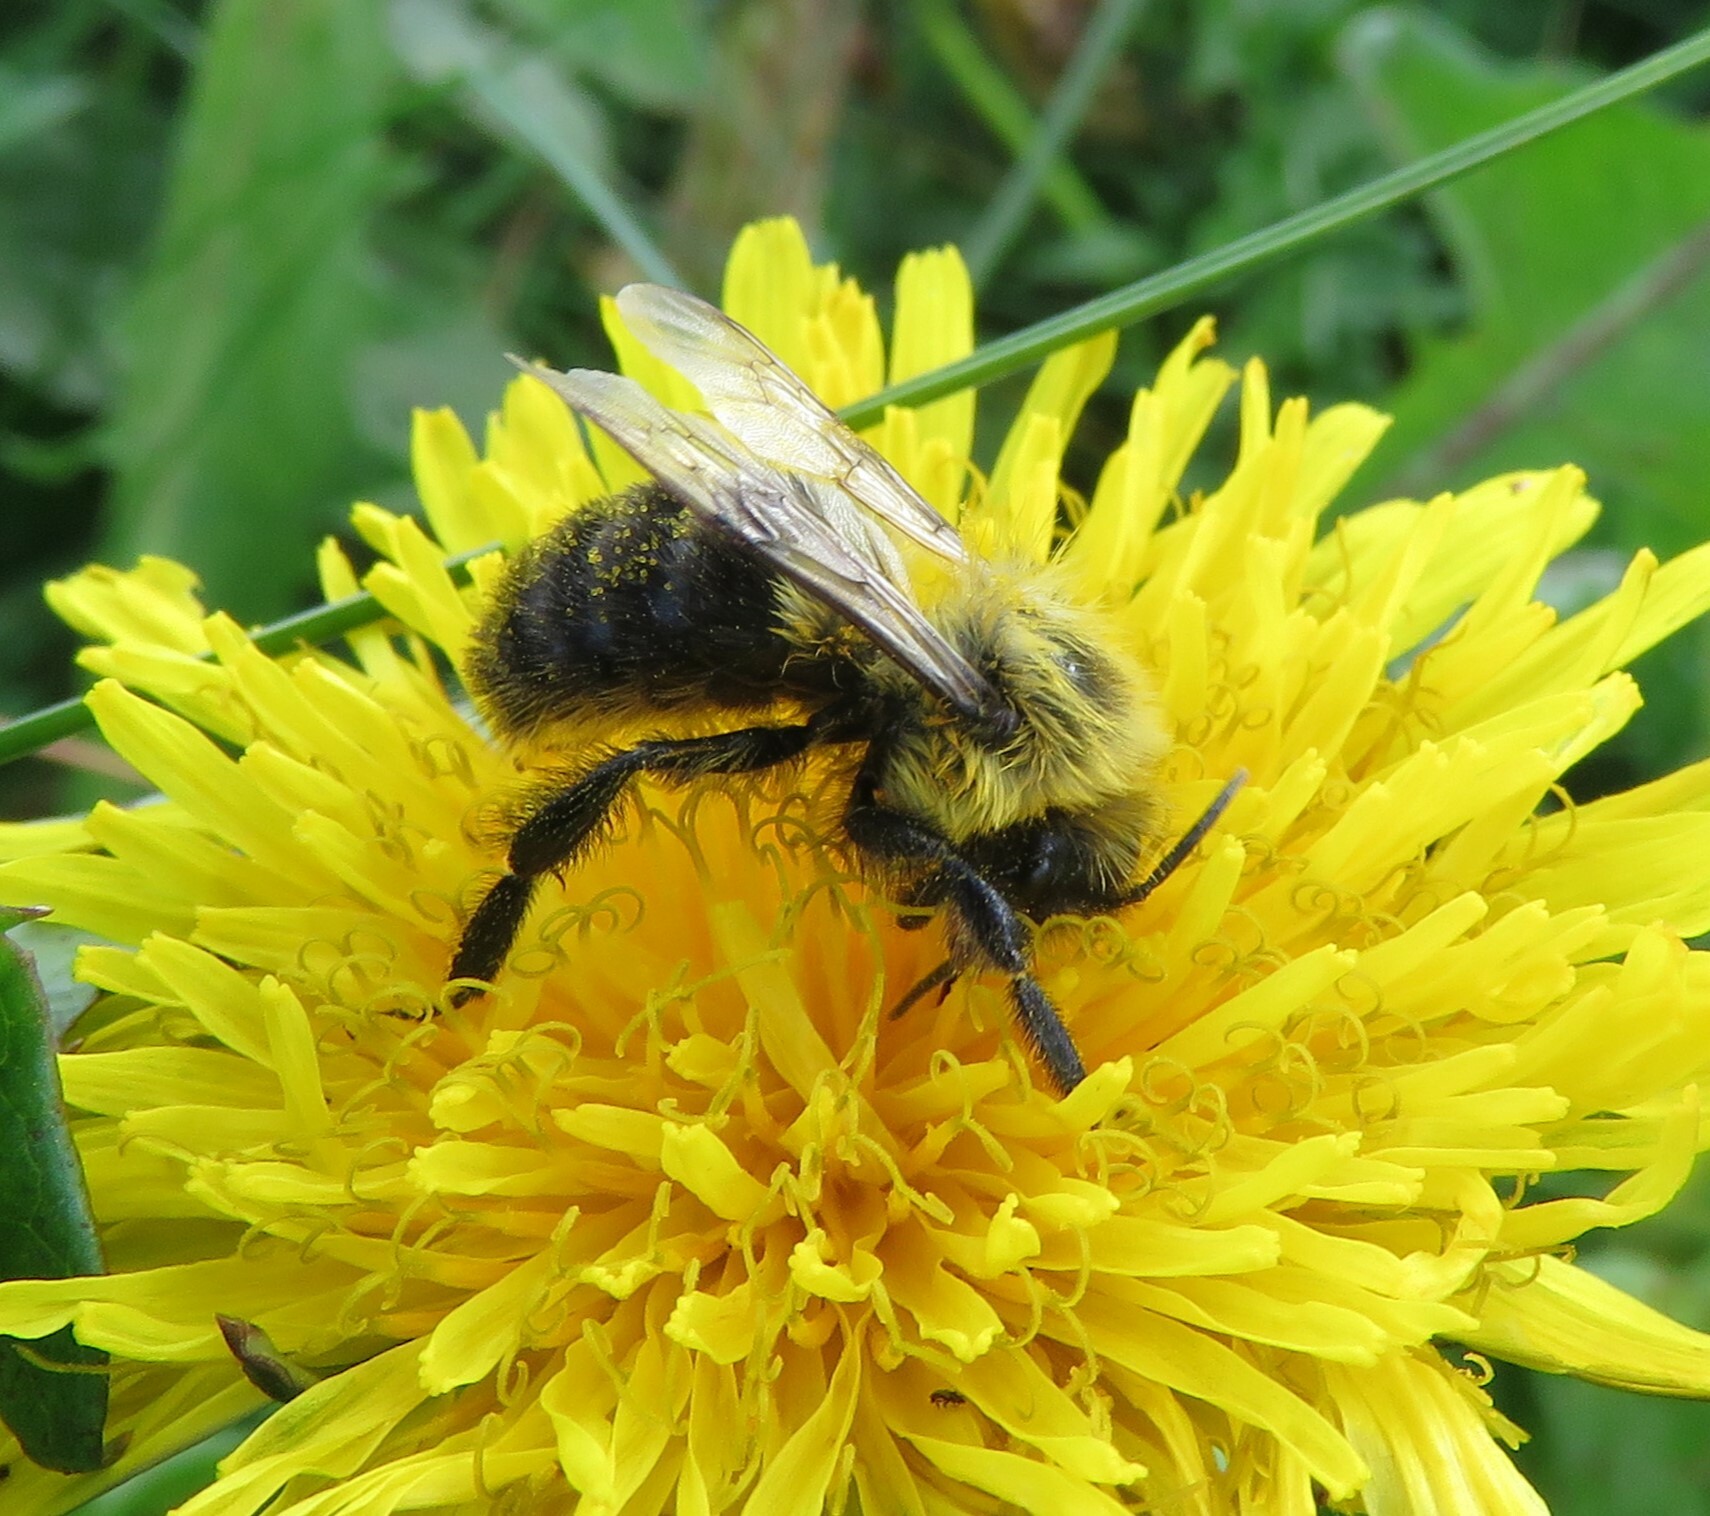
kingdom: Animalia
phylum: Arthropoda
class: Insecta
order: Hymenoptera
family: Apidae
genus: Bombus
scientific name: Bombus impatiens
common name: Common eastern bumble bee
